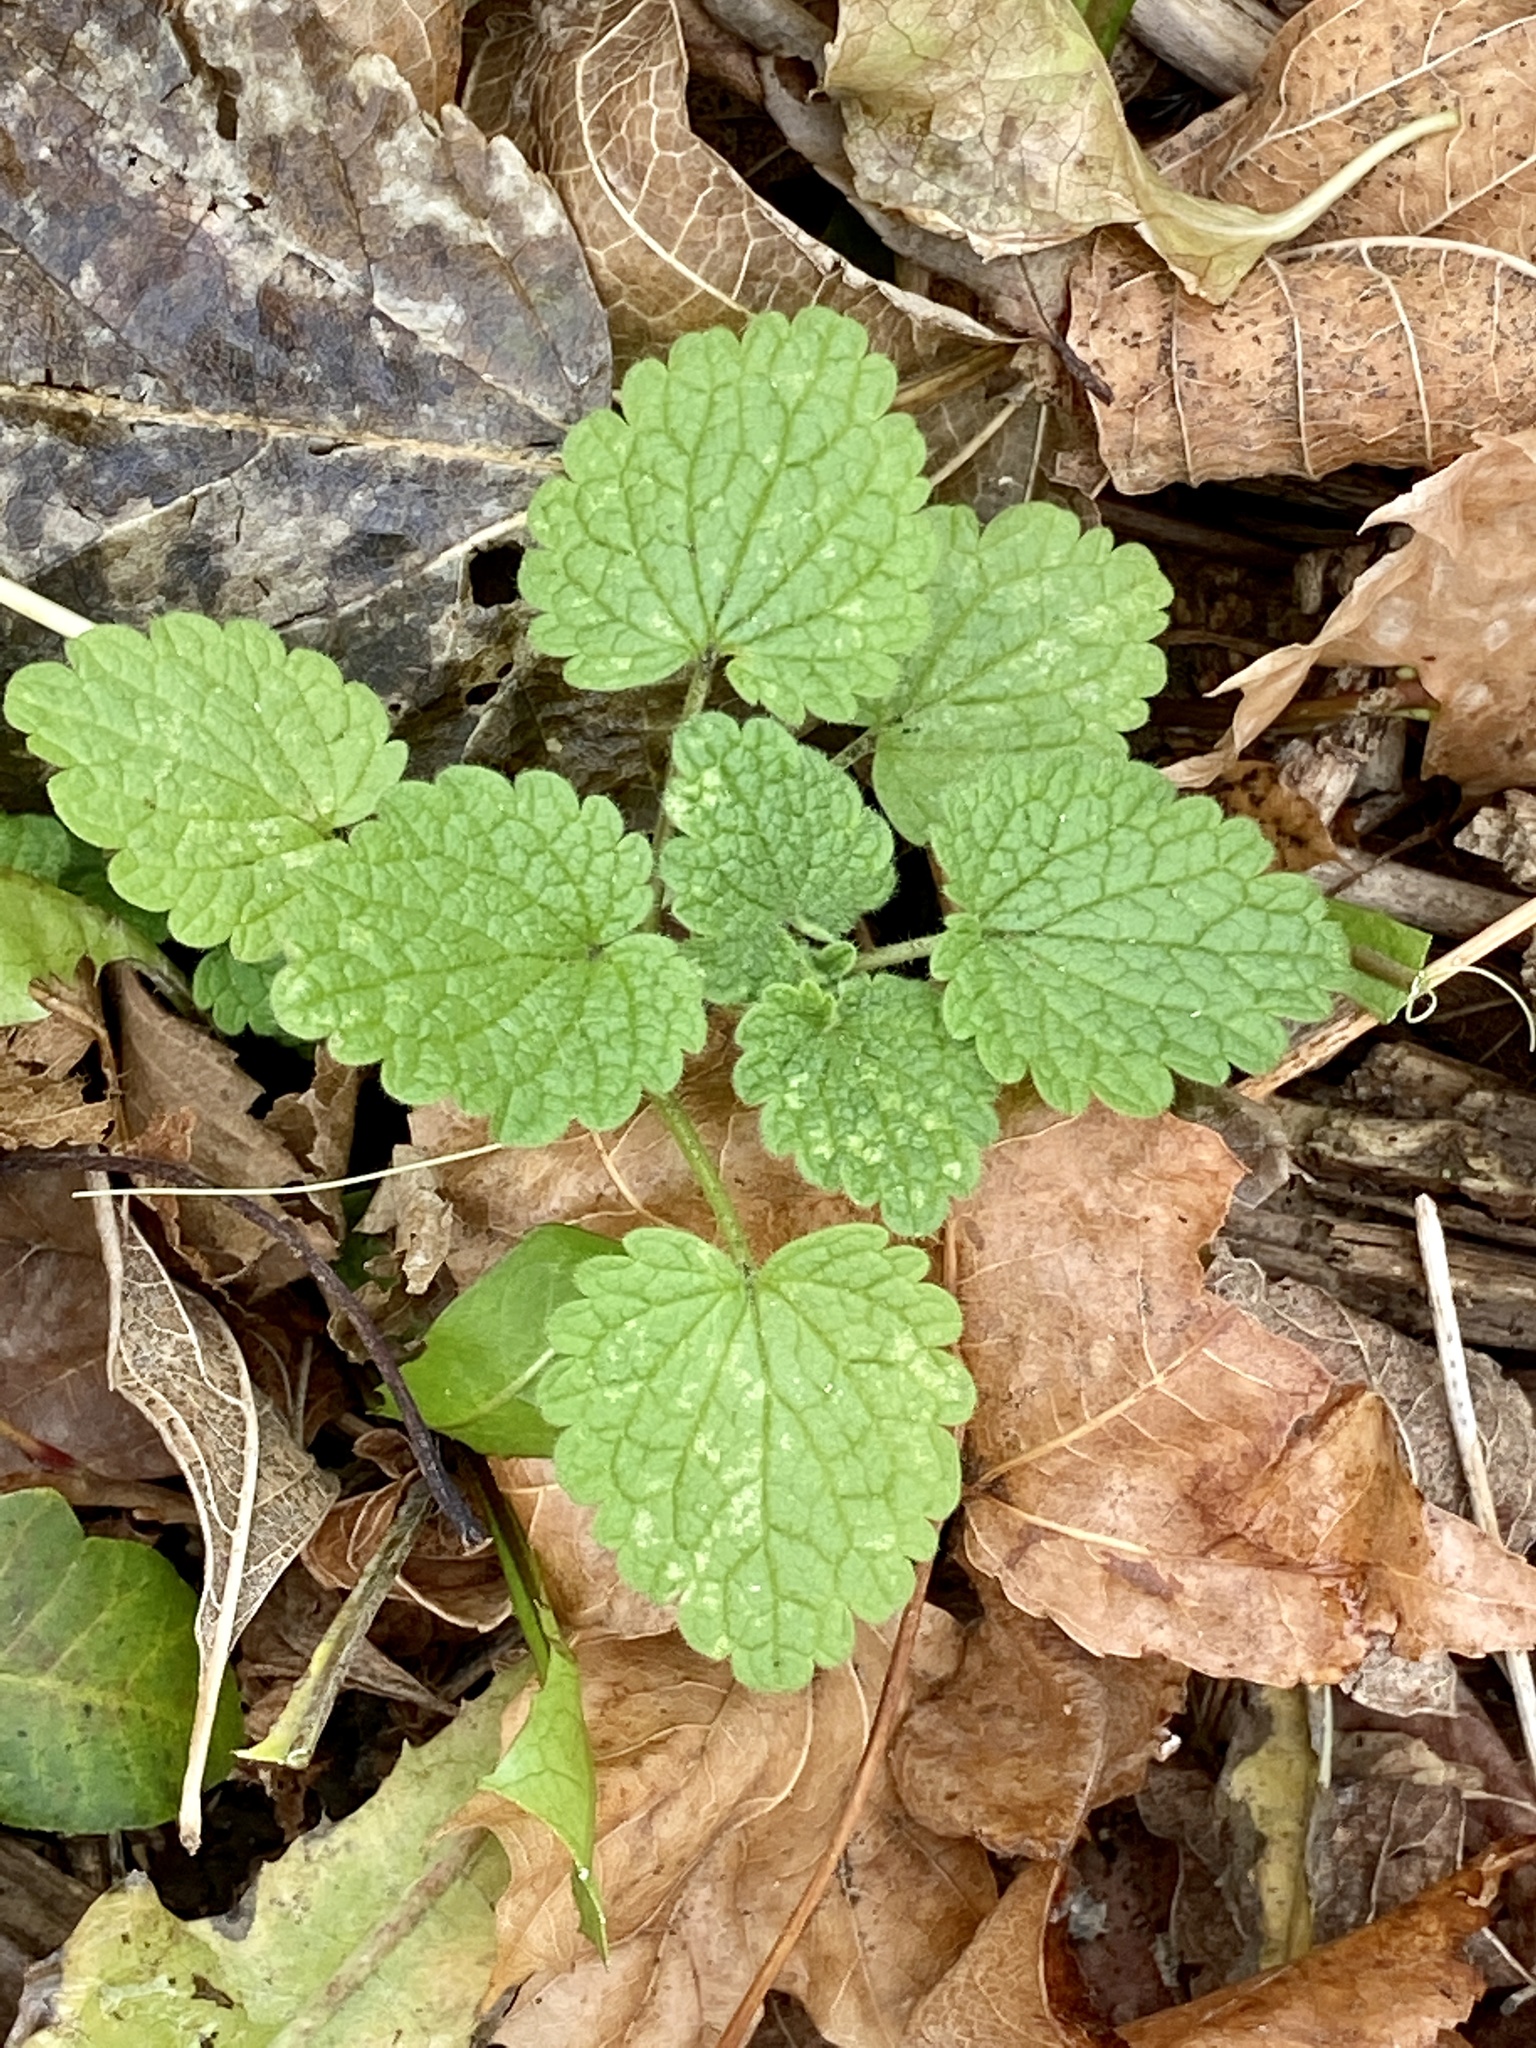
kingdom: Plantae
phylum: Tracheophyta
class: Magnoliopsida
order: Lamiales
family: Lamiaceae
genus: Lamium
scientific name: Lamium purpureum
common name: Red dead-nettle
